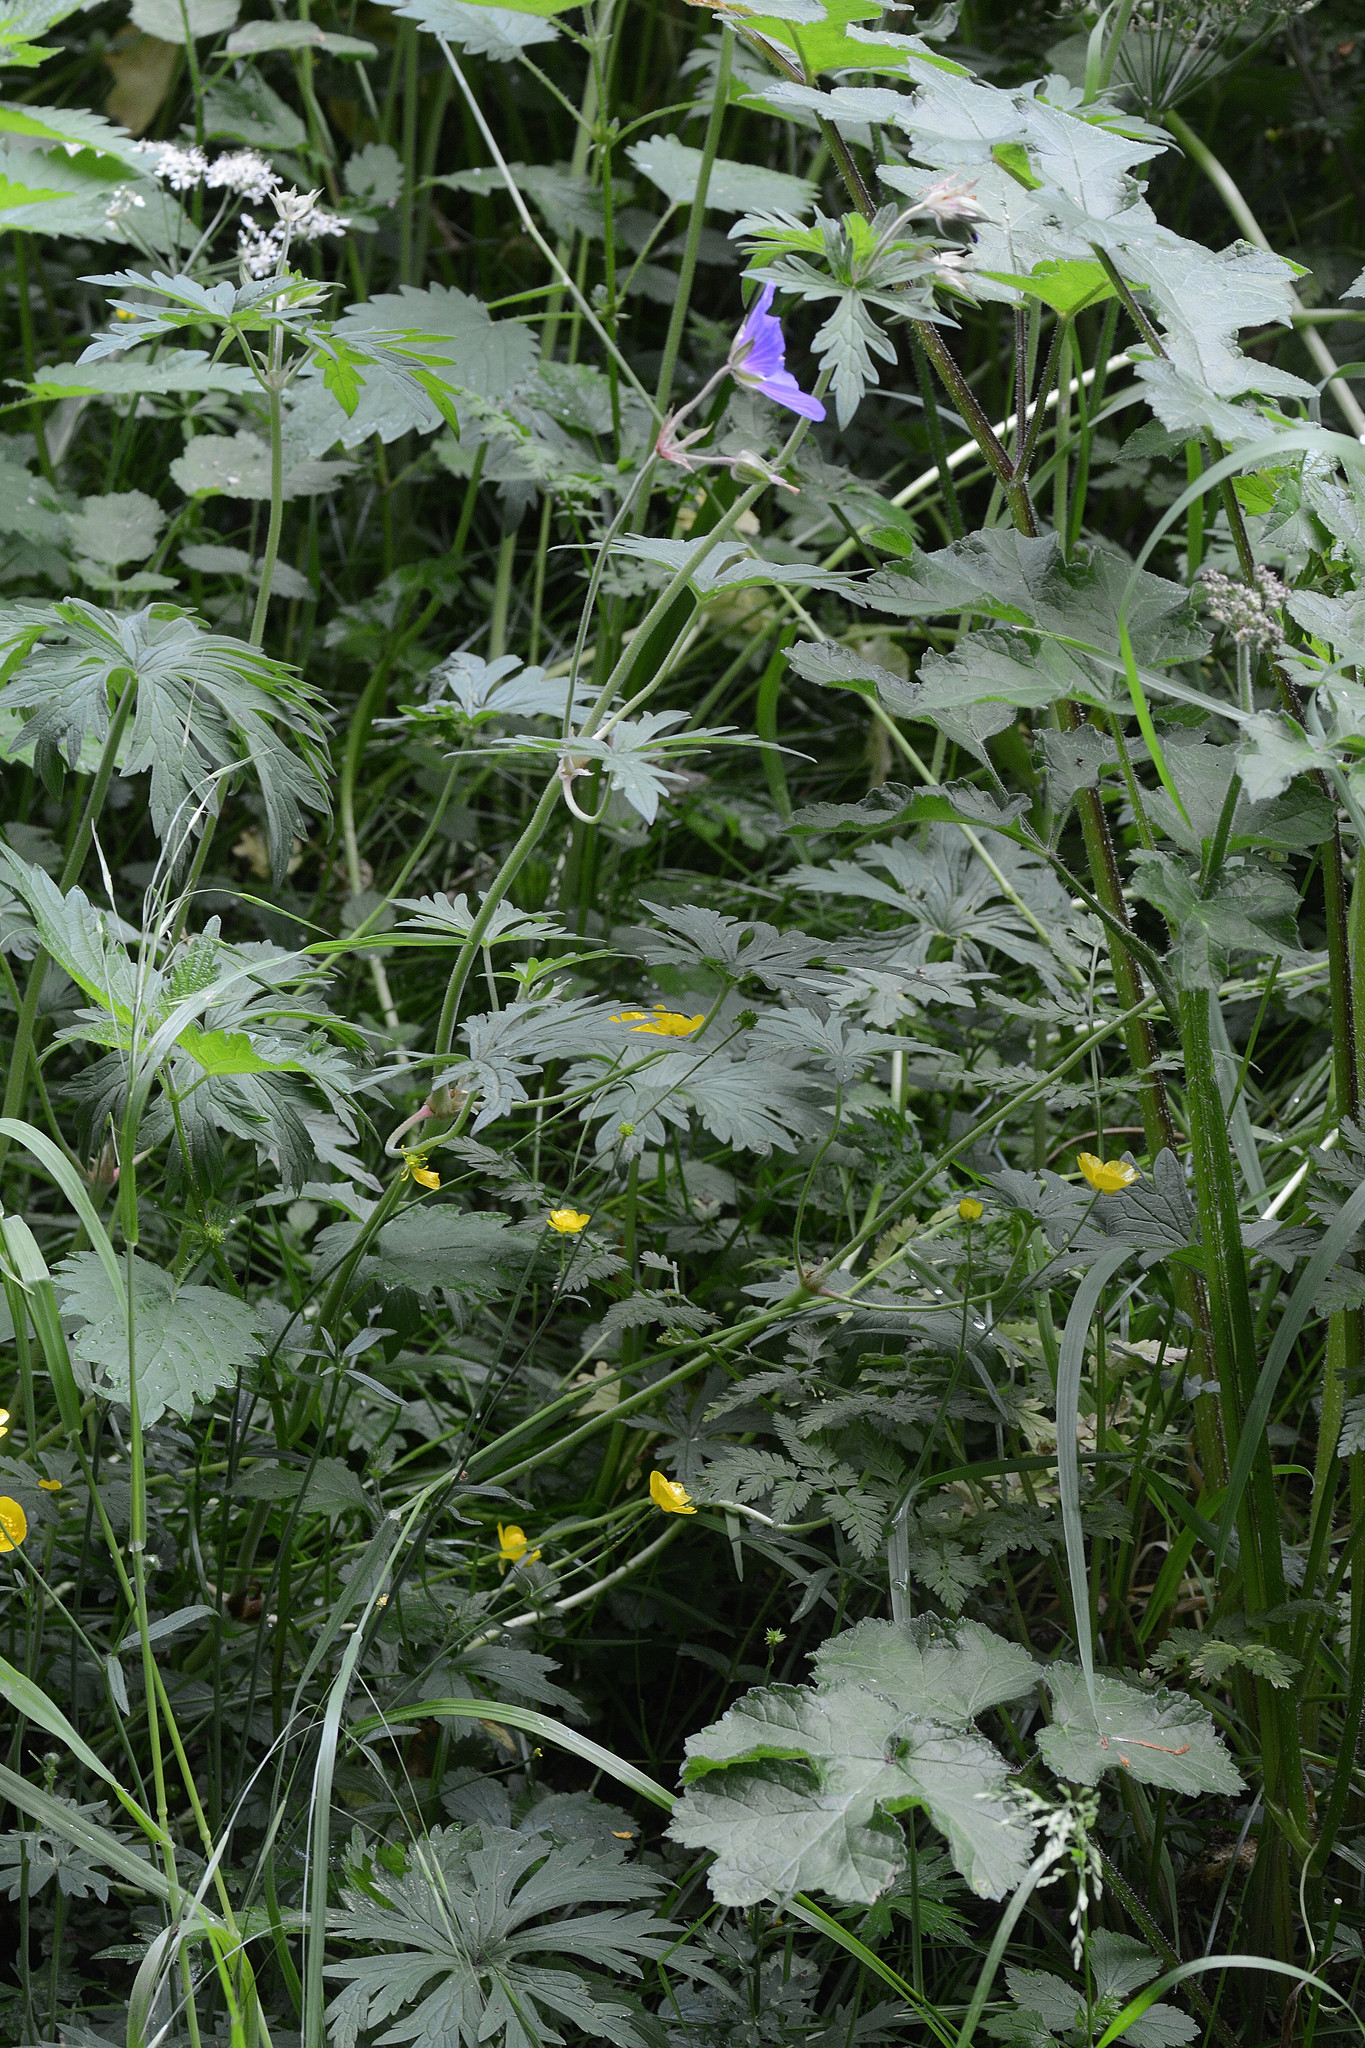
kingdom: Plantae
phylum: Tracheophyta
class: Magnoliopsida
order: Geraniales
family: Geraniaceae
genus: Geranium
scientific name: Geranium pratense
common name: Meadow crane's-bill
